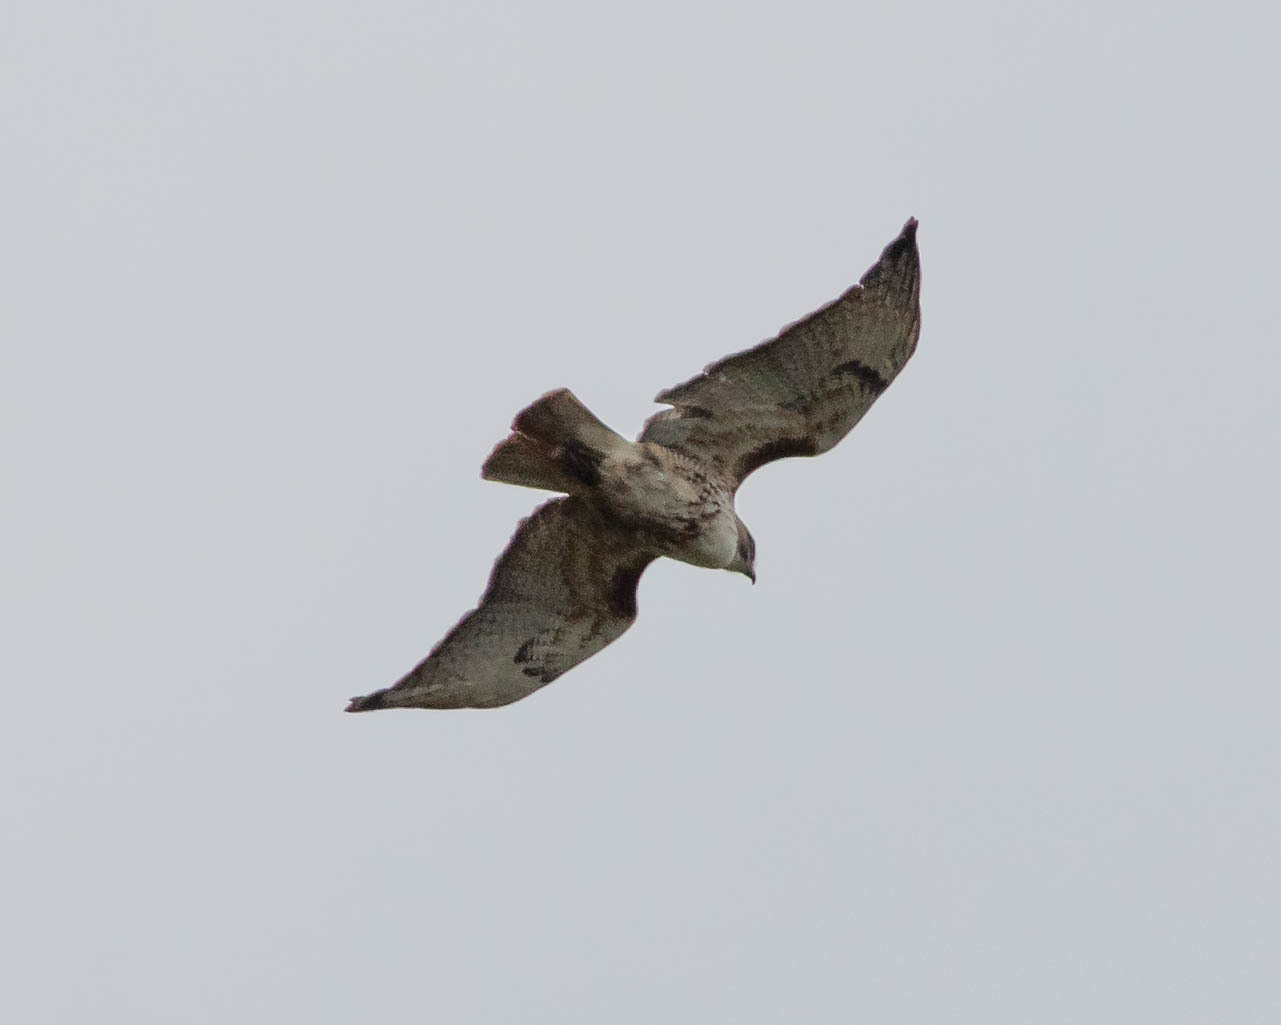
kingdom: Animalia
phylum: Chordata
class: Aves
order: Accipitriformes
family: Accipitridae
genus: Buteo
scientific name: Buteo jamaicensis
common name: Red-tailed hawk
